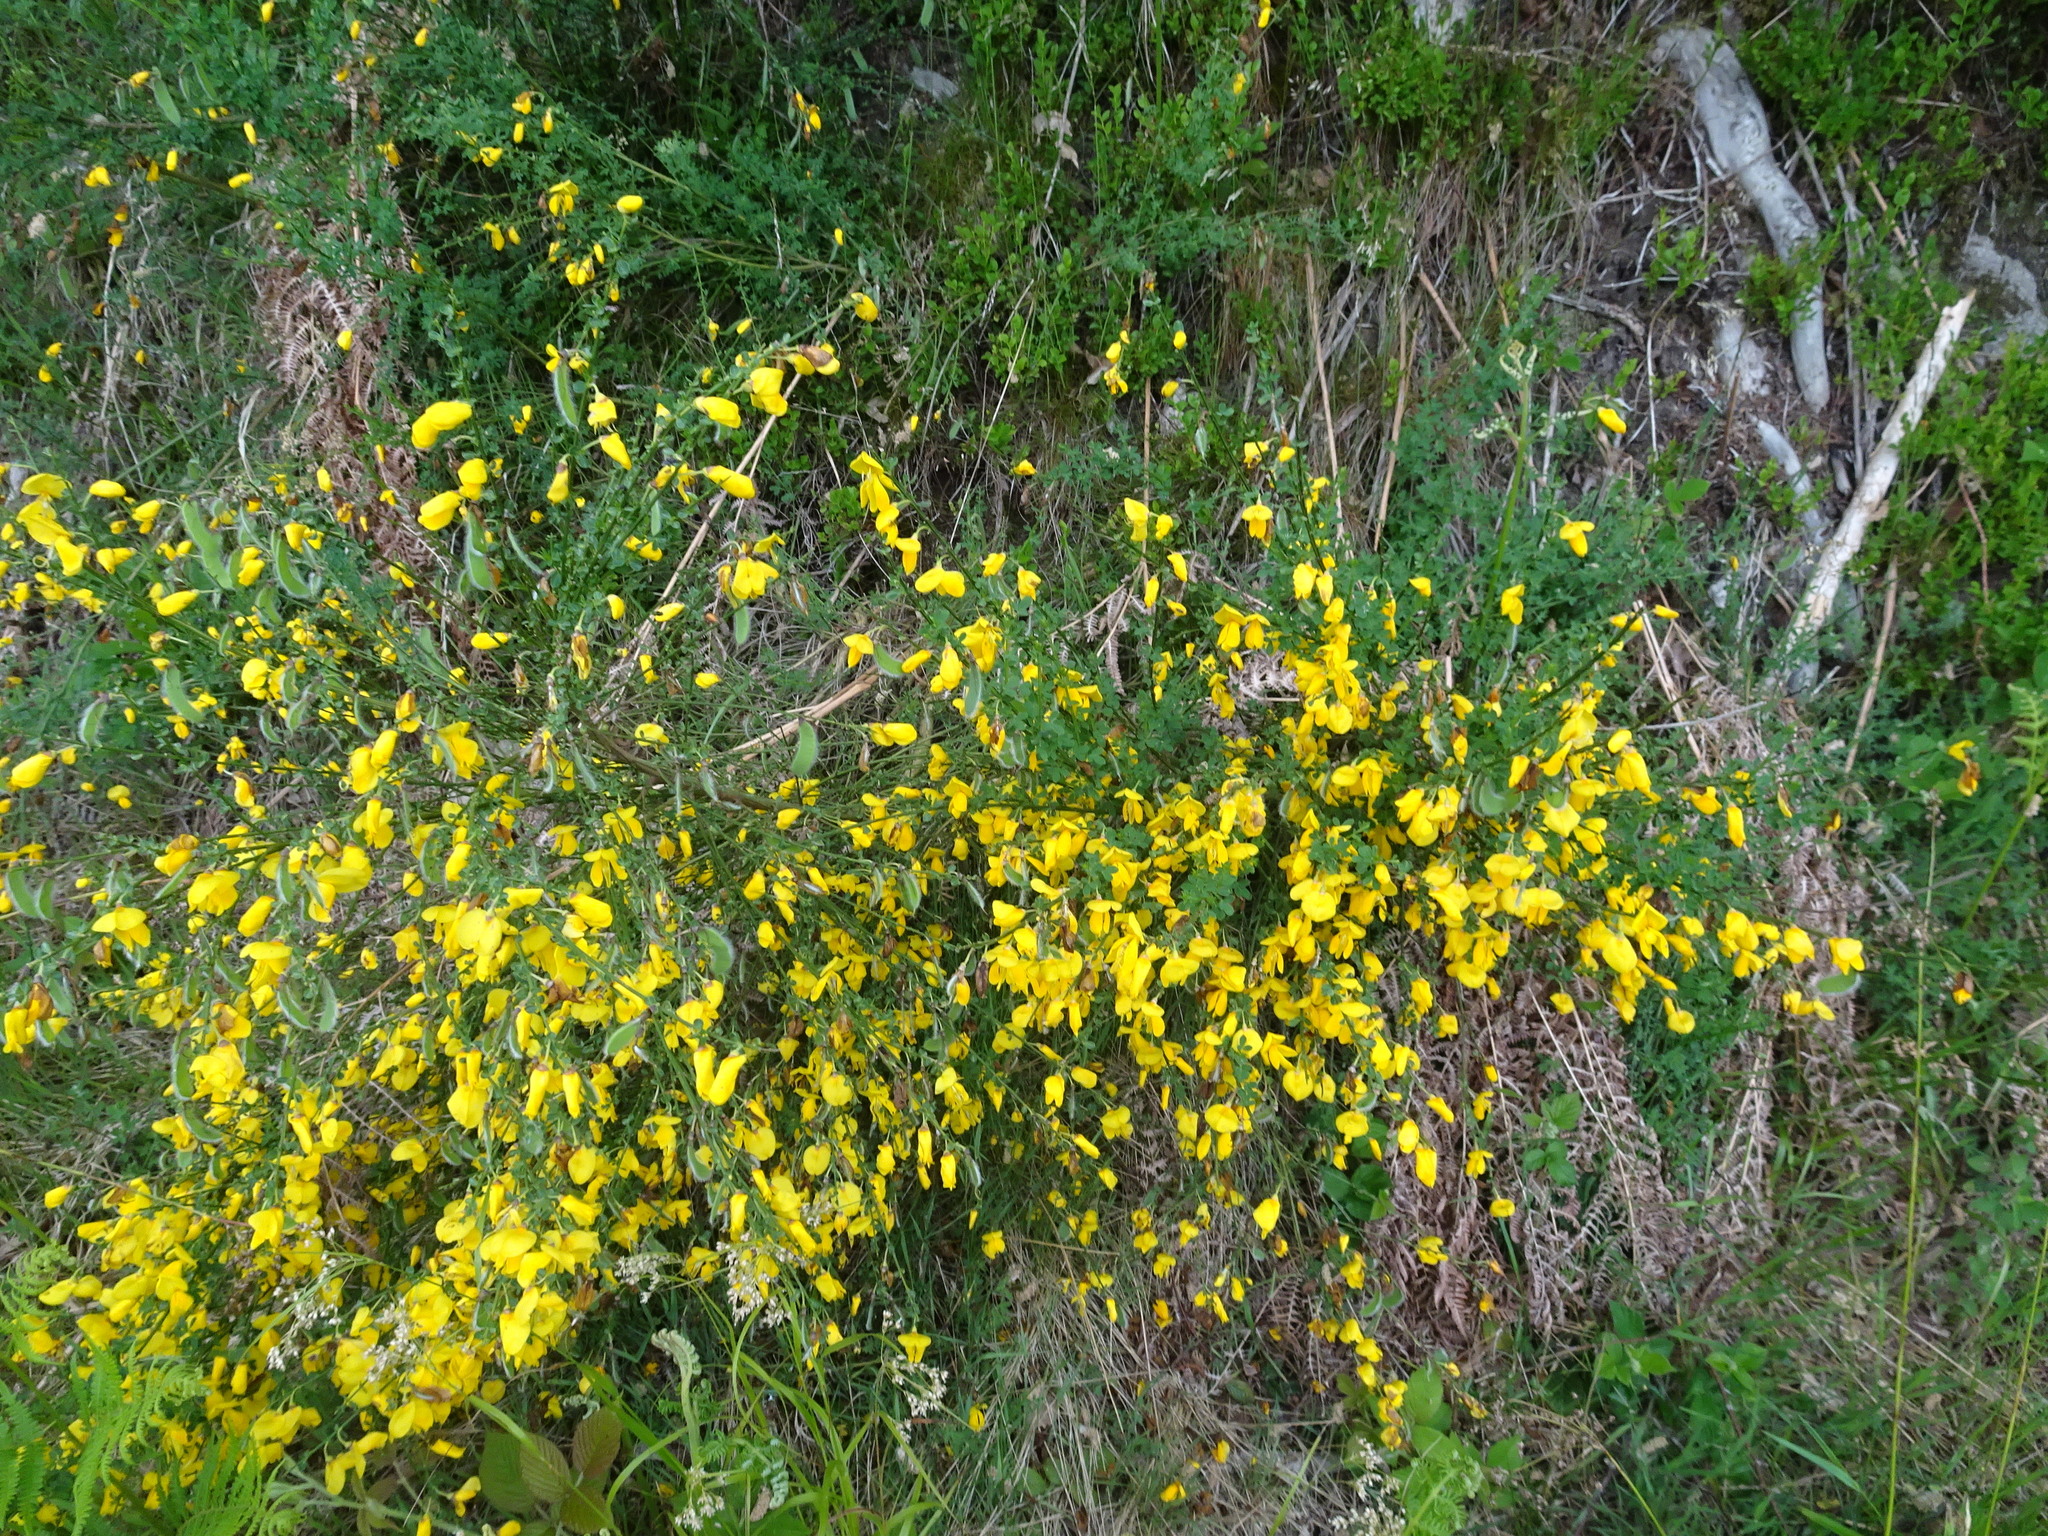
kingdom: Plantae
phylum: Tracheophyta
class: Magnoliopsida
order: Fabales
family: Fabaceae
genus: Cytisus
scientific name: Cytisus scoparius
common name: Scotch broom
